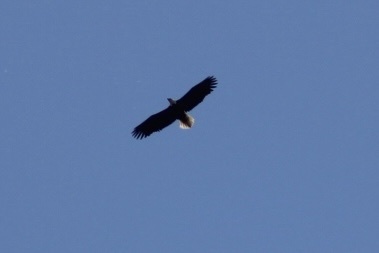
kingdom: Animalia
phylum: Chordata
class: Aves
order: Accipitriformes
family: Accipitridae
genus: Haliaeetus
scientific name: Haliaeetus leucocephalus
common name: Bald eagle
